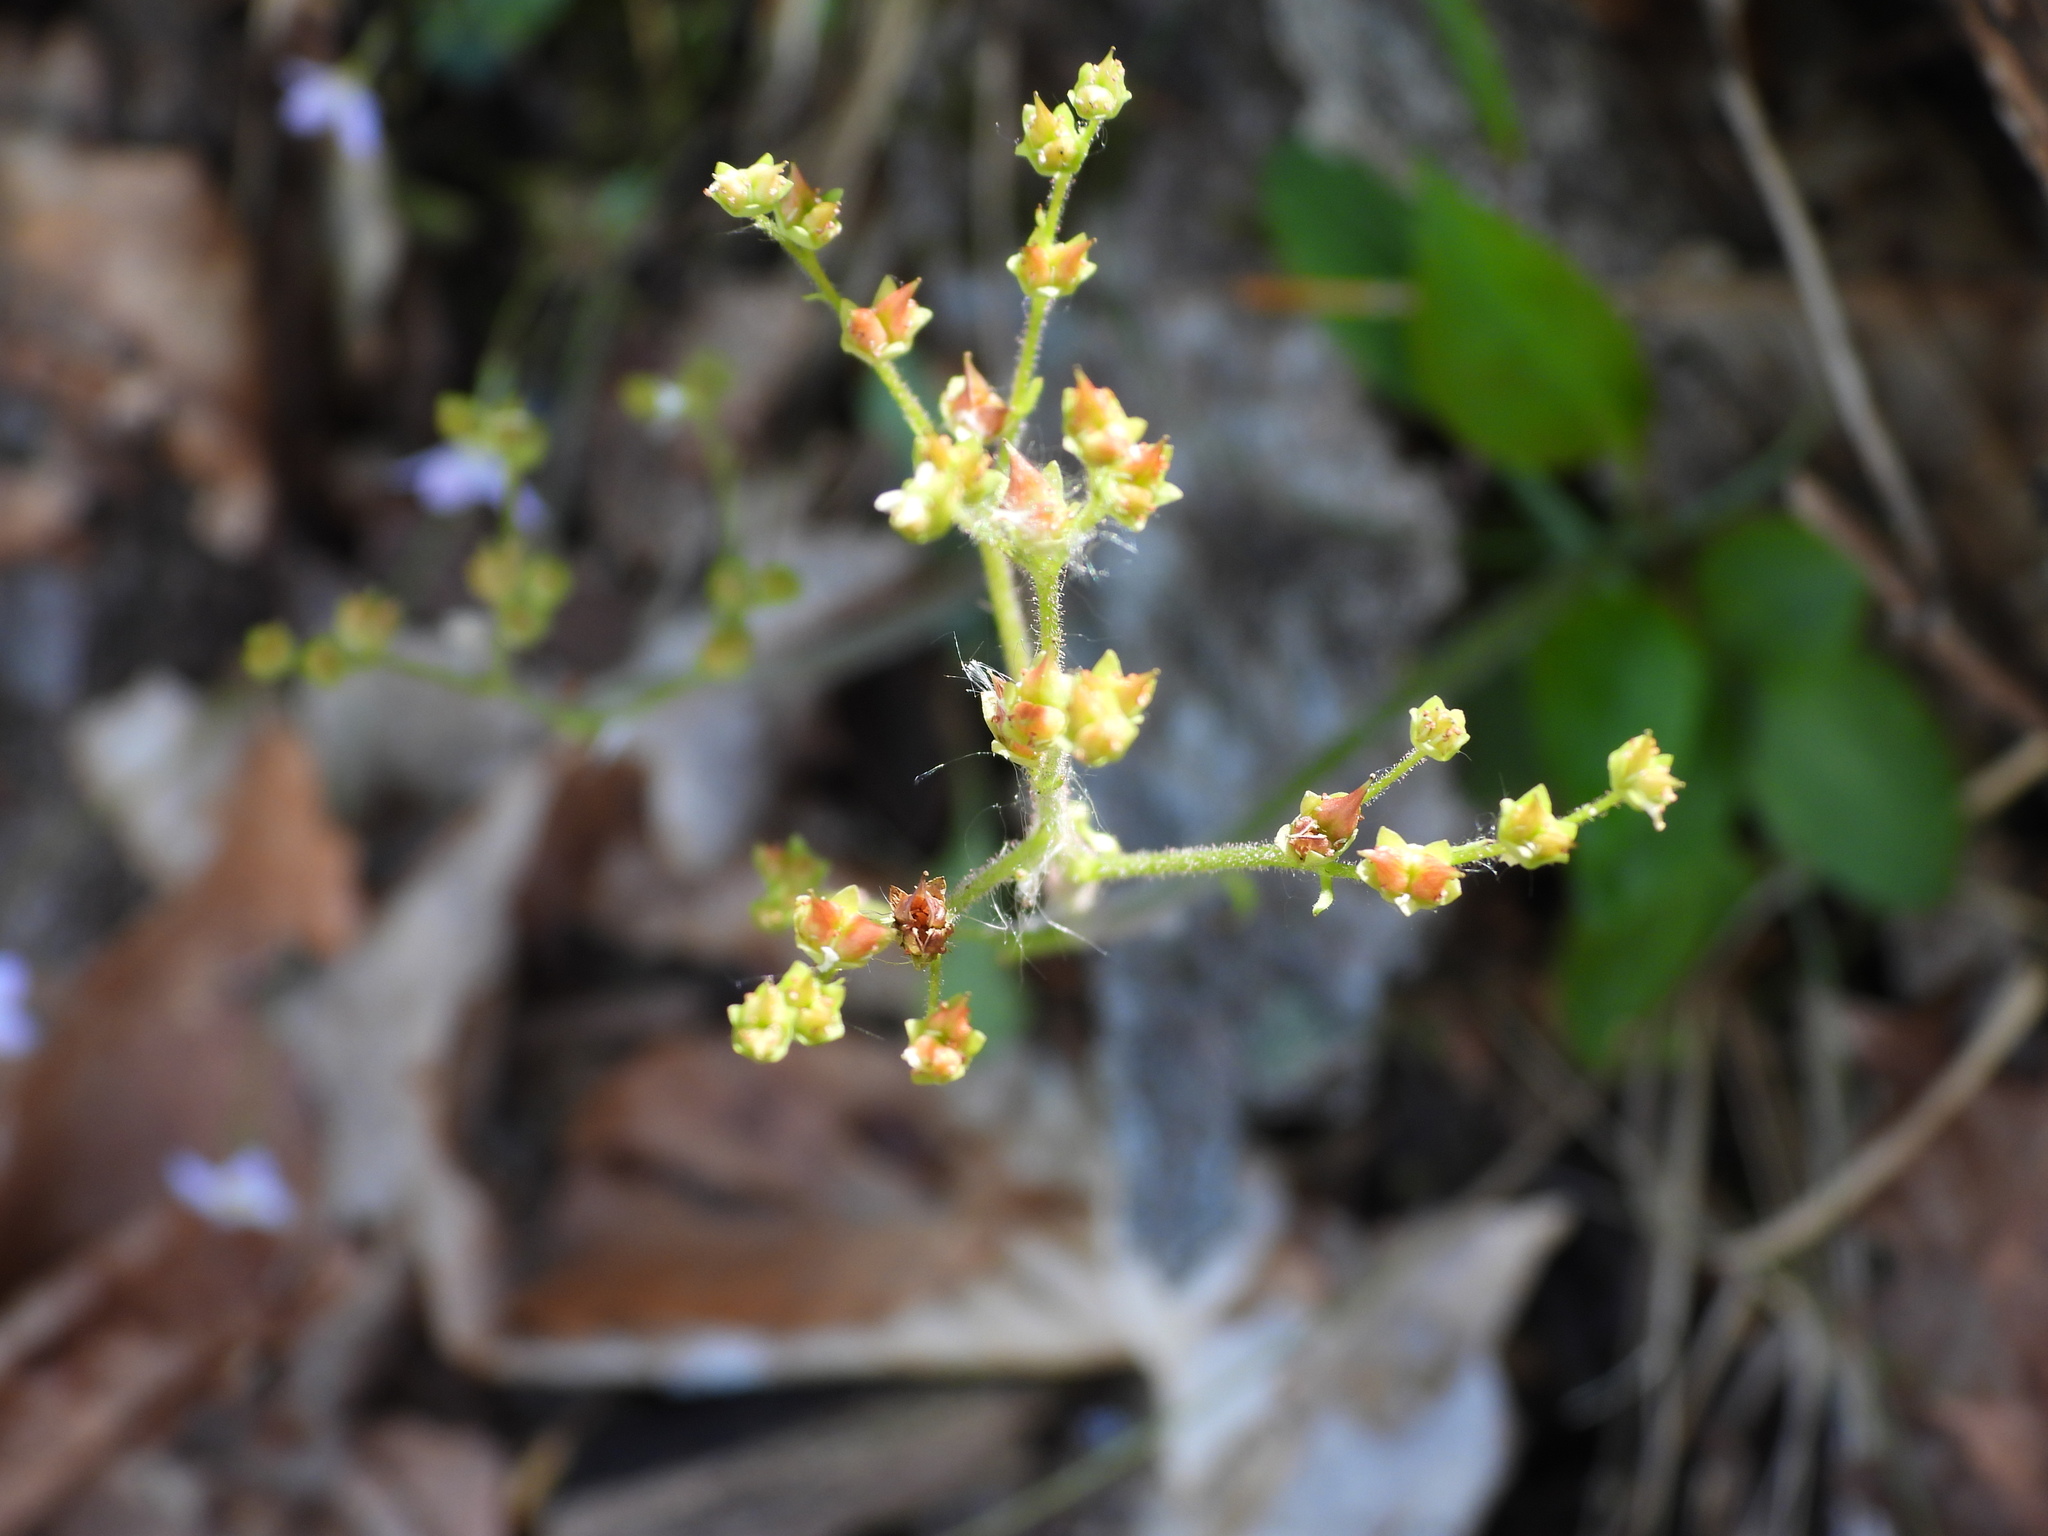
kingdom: Plantae
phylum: Tracheophyta
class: Magnoliopsida
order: Saxifragales
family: Saxifragaceae
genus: Micranthes
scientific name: Micranthes virginiensis
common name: Early saxifrage
